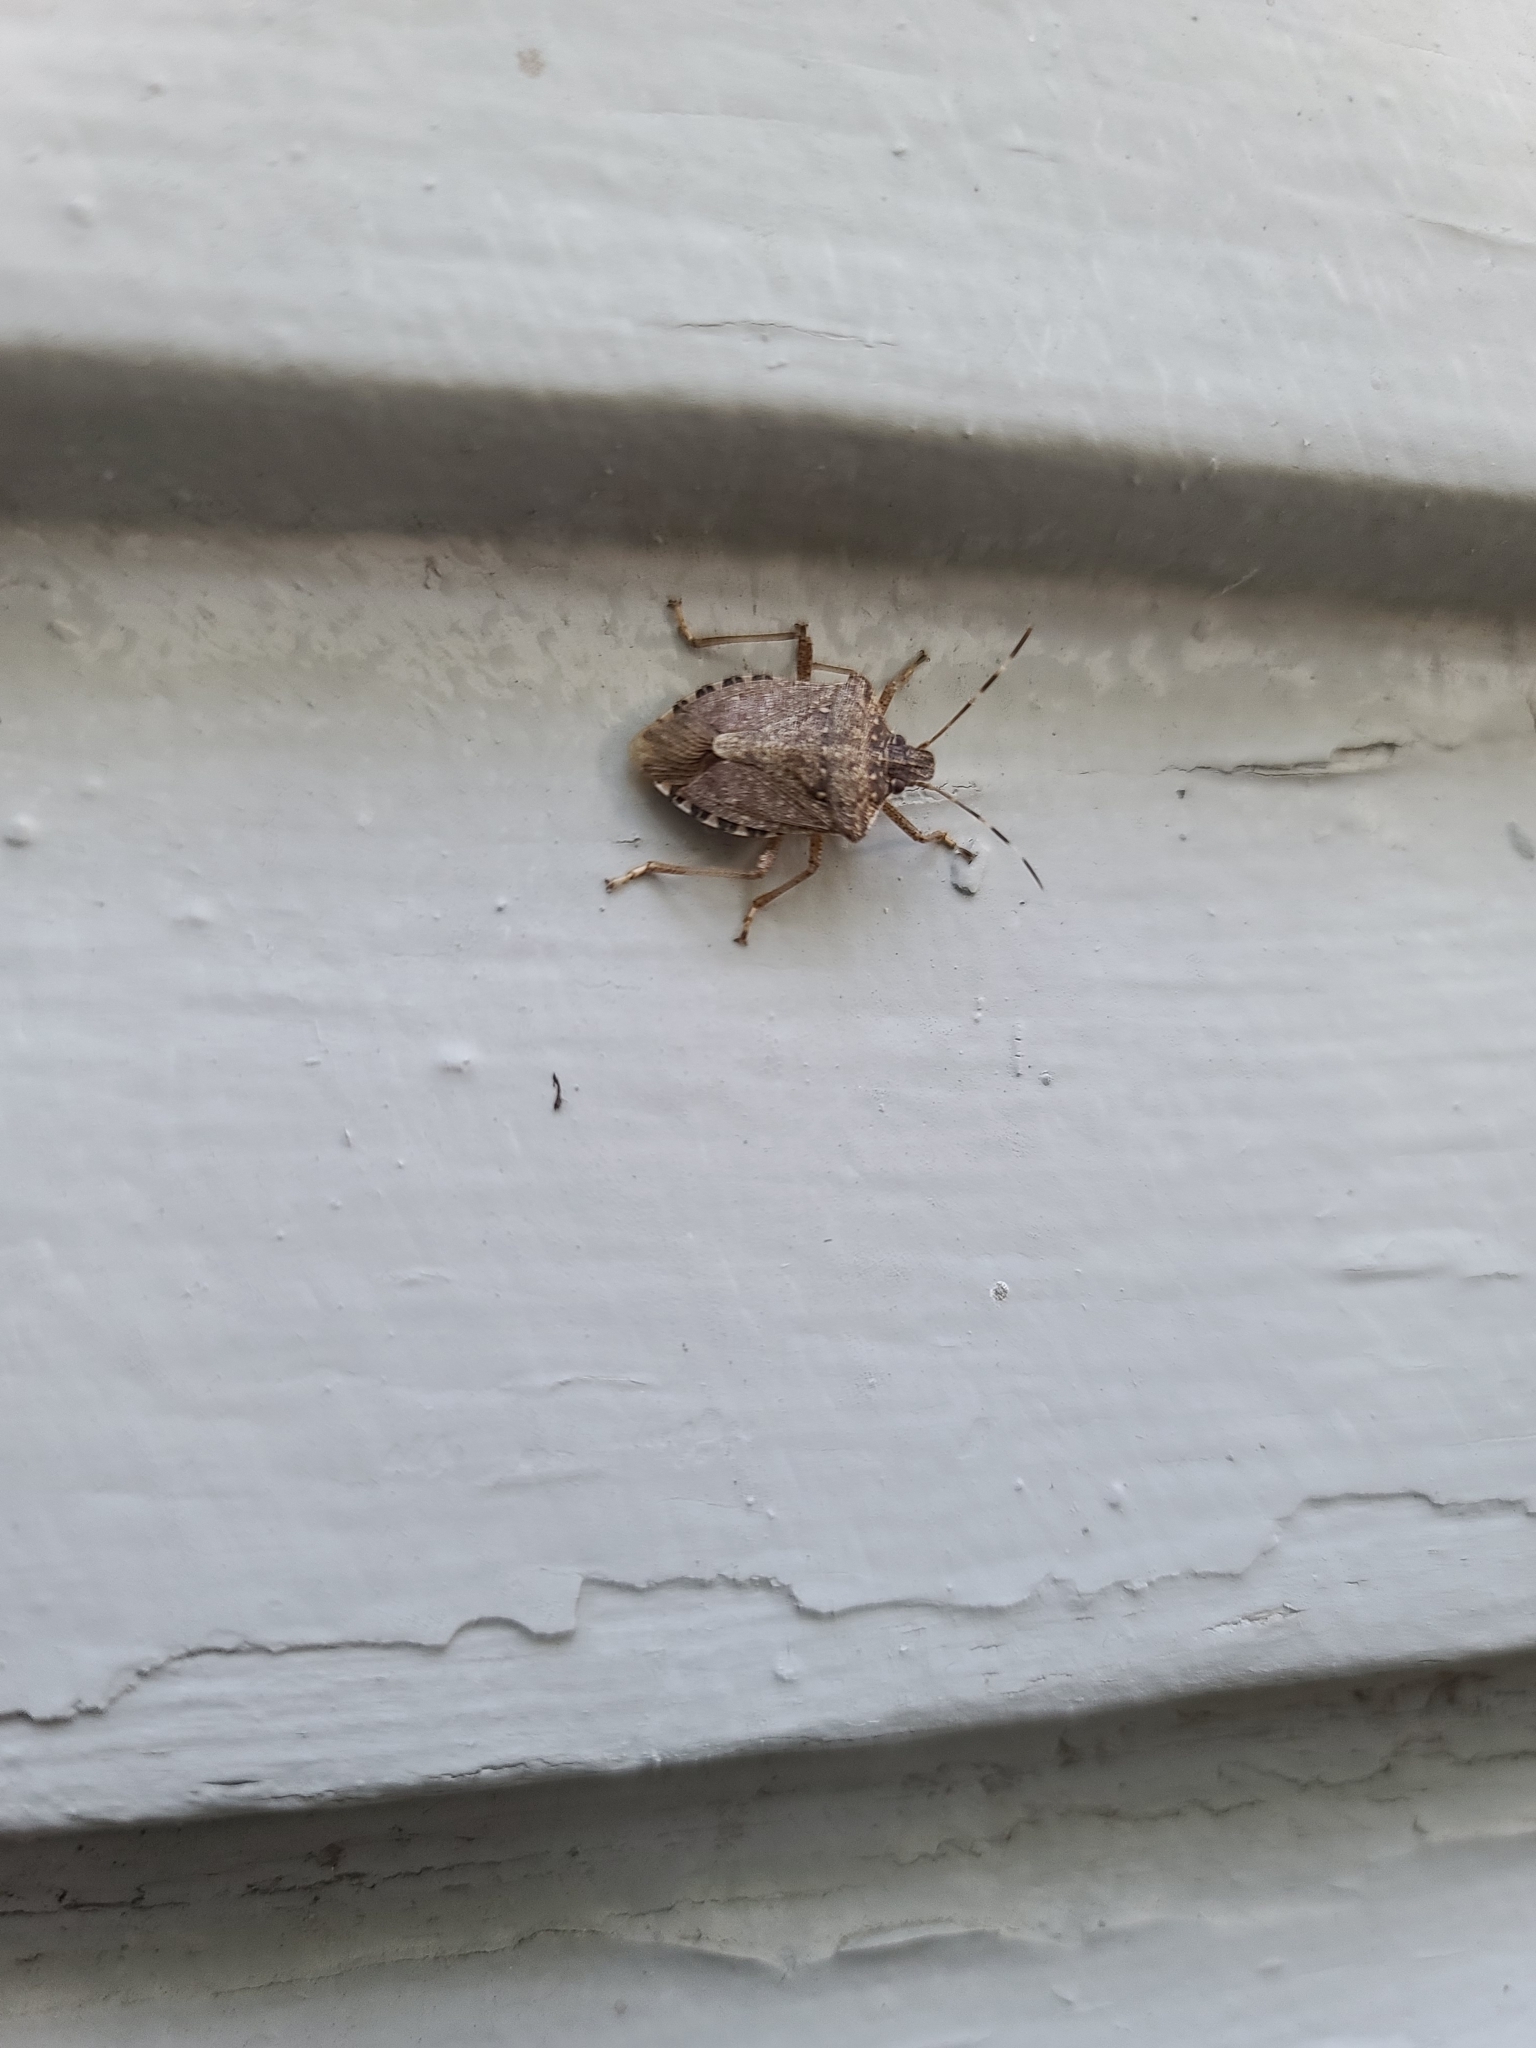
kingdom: Animalia
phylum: Arthropoda
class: Insecta
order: Hemiptera
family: Pentatomidae
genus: Halyomorpha
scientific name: Halyomorpha halys
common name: Brown marmorated stink bug
